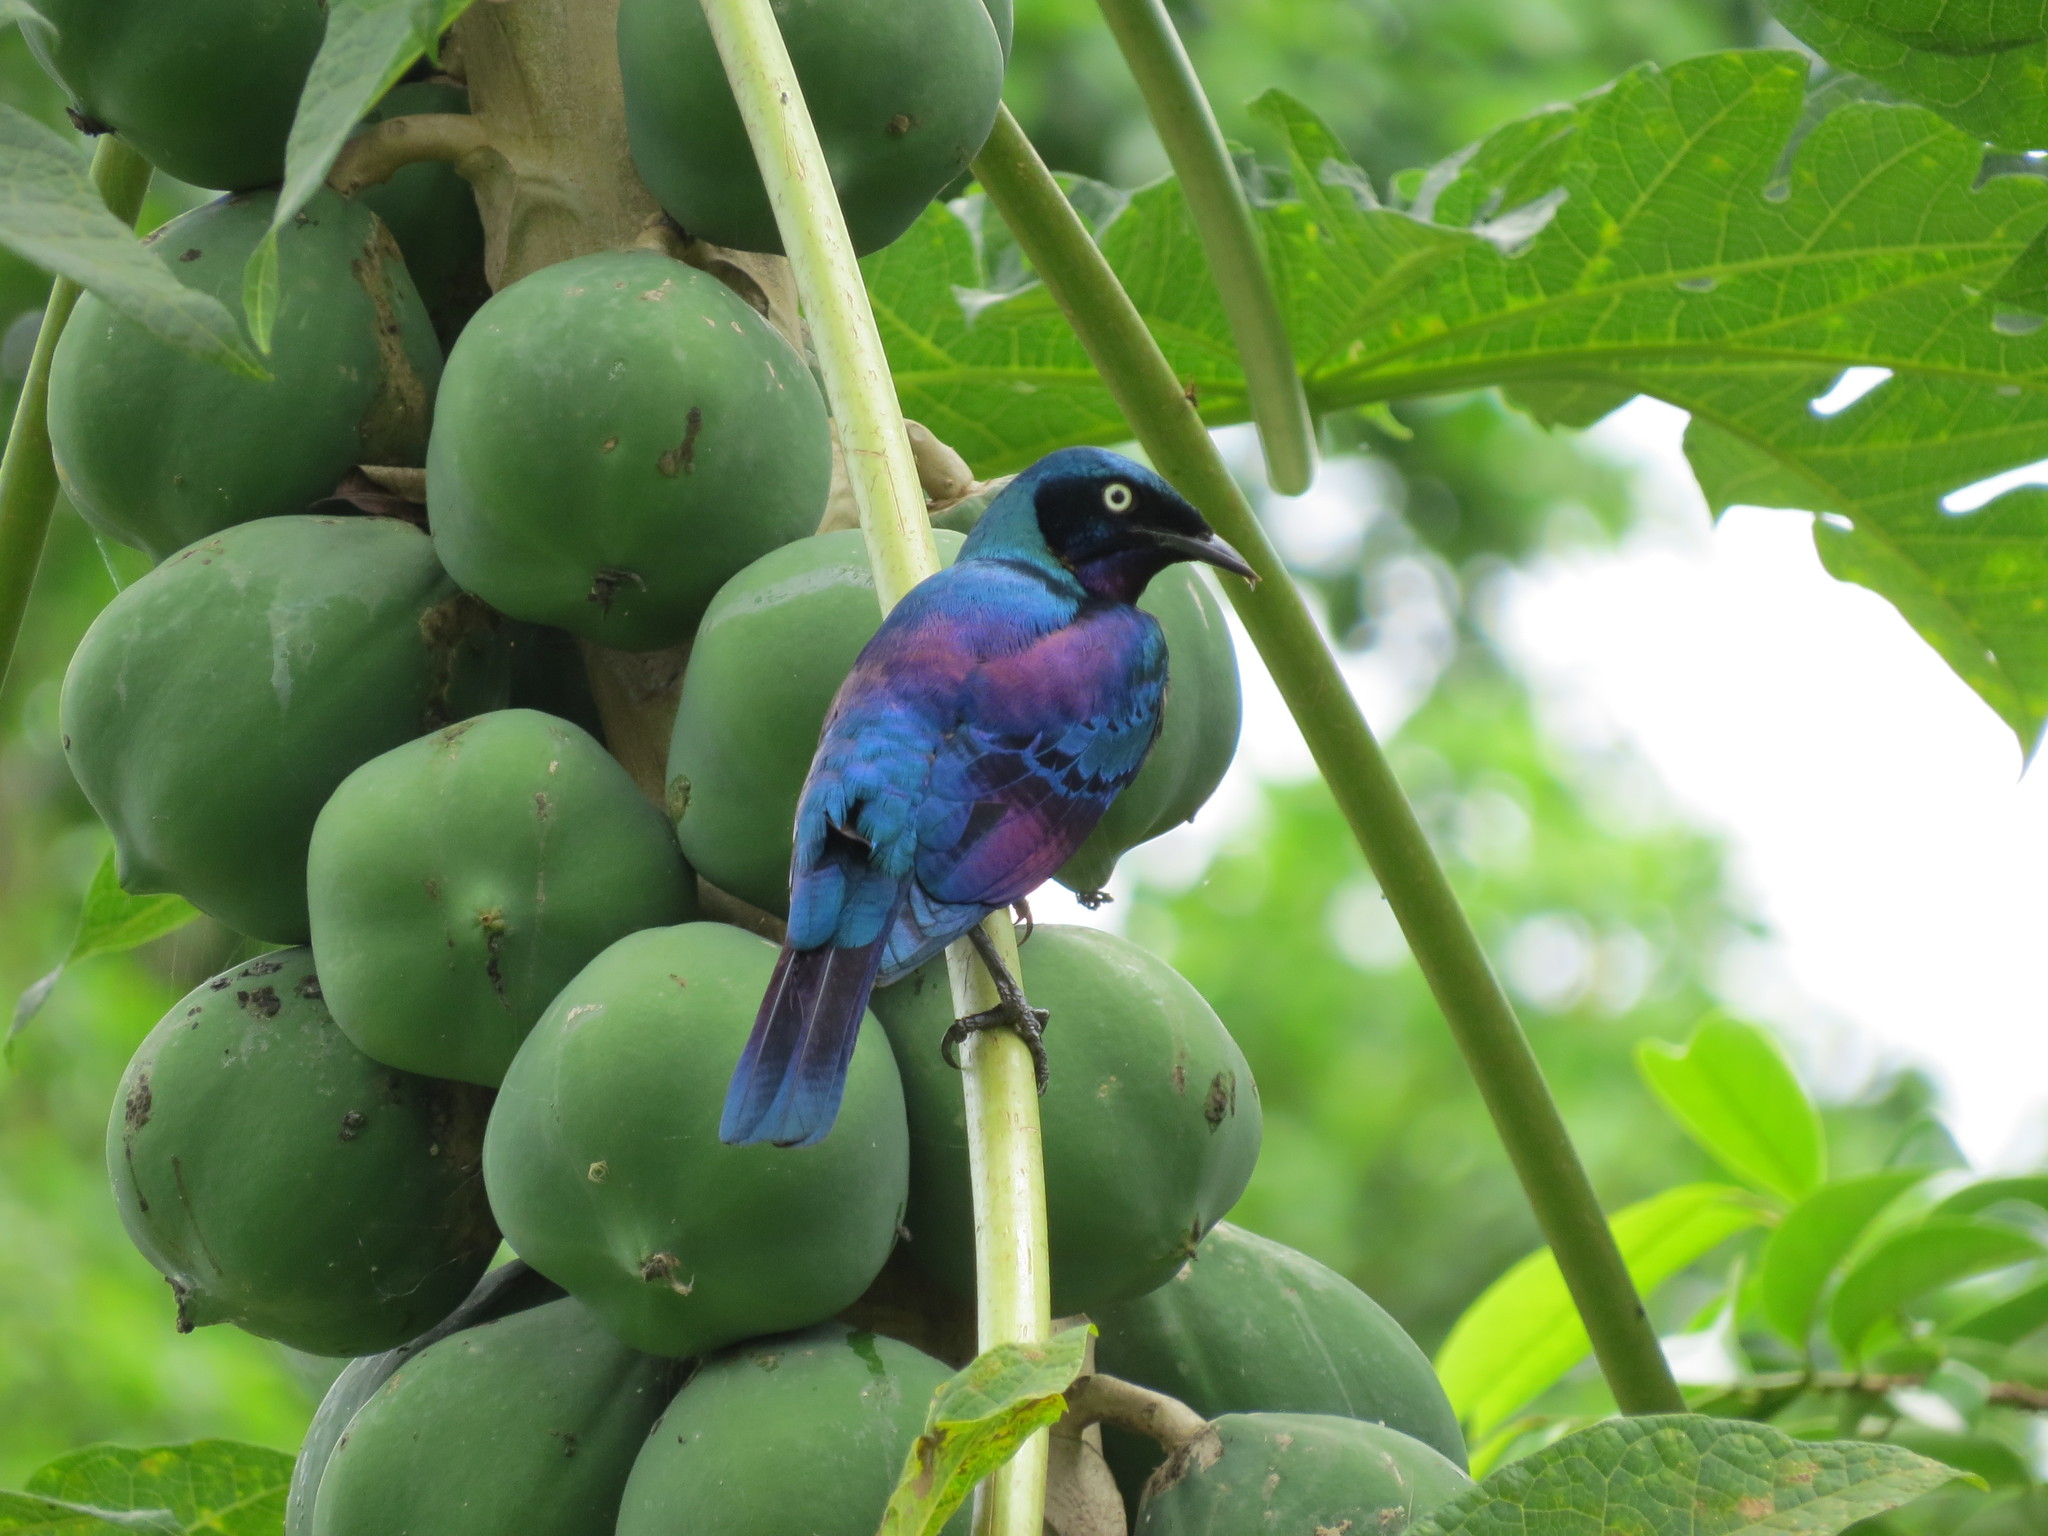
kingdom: Animalia
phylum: Chordata
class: Aves
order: Passeriformes
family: Sturnidae
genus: Lamprotornis
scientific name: Lamprotornis splendidus
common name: Splendid starling
